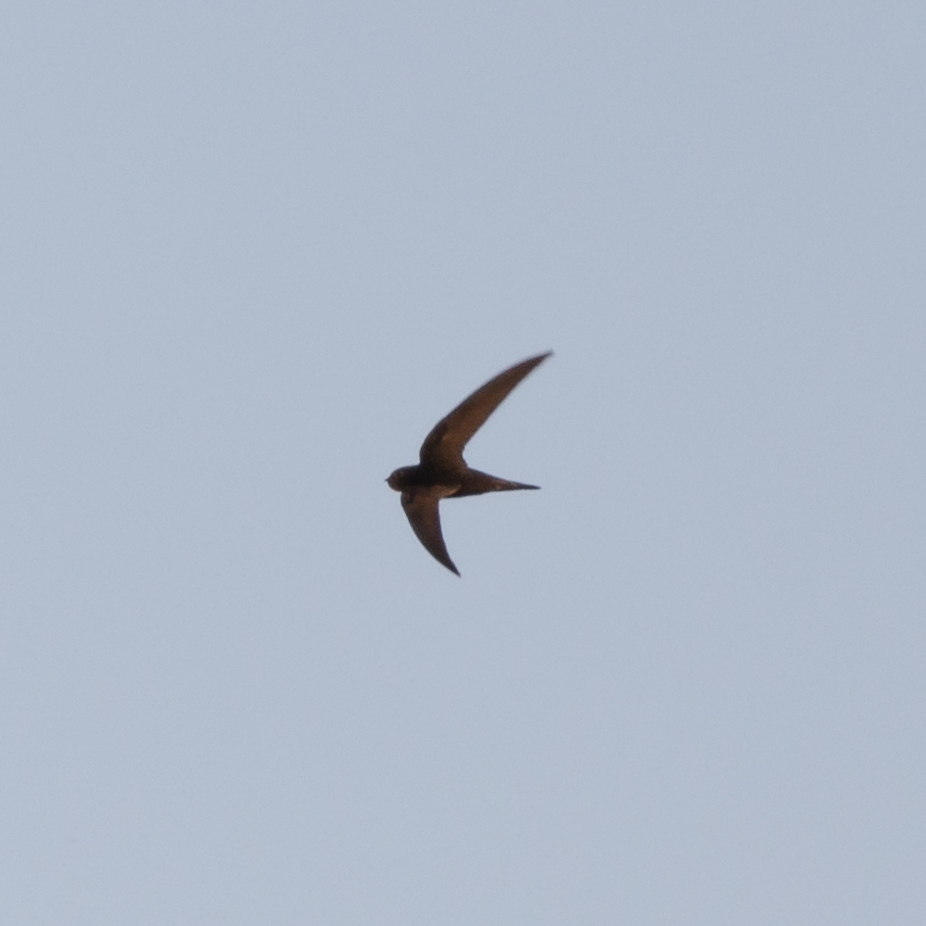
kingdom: Animalia
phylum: Chordata
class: Aves
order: Apodiformes
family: Apodidae
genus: Apus
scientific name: Apus apus
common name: Common swift
